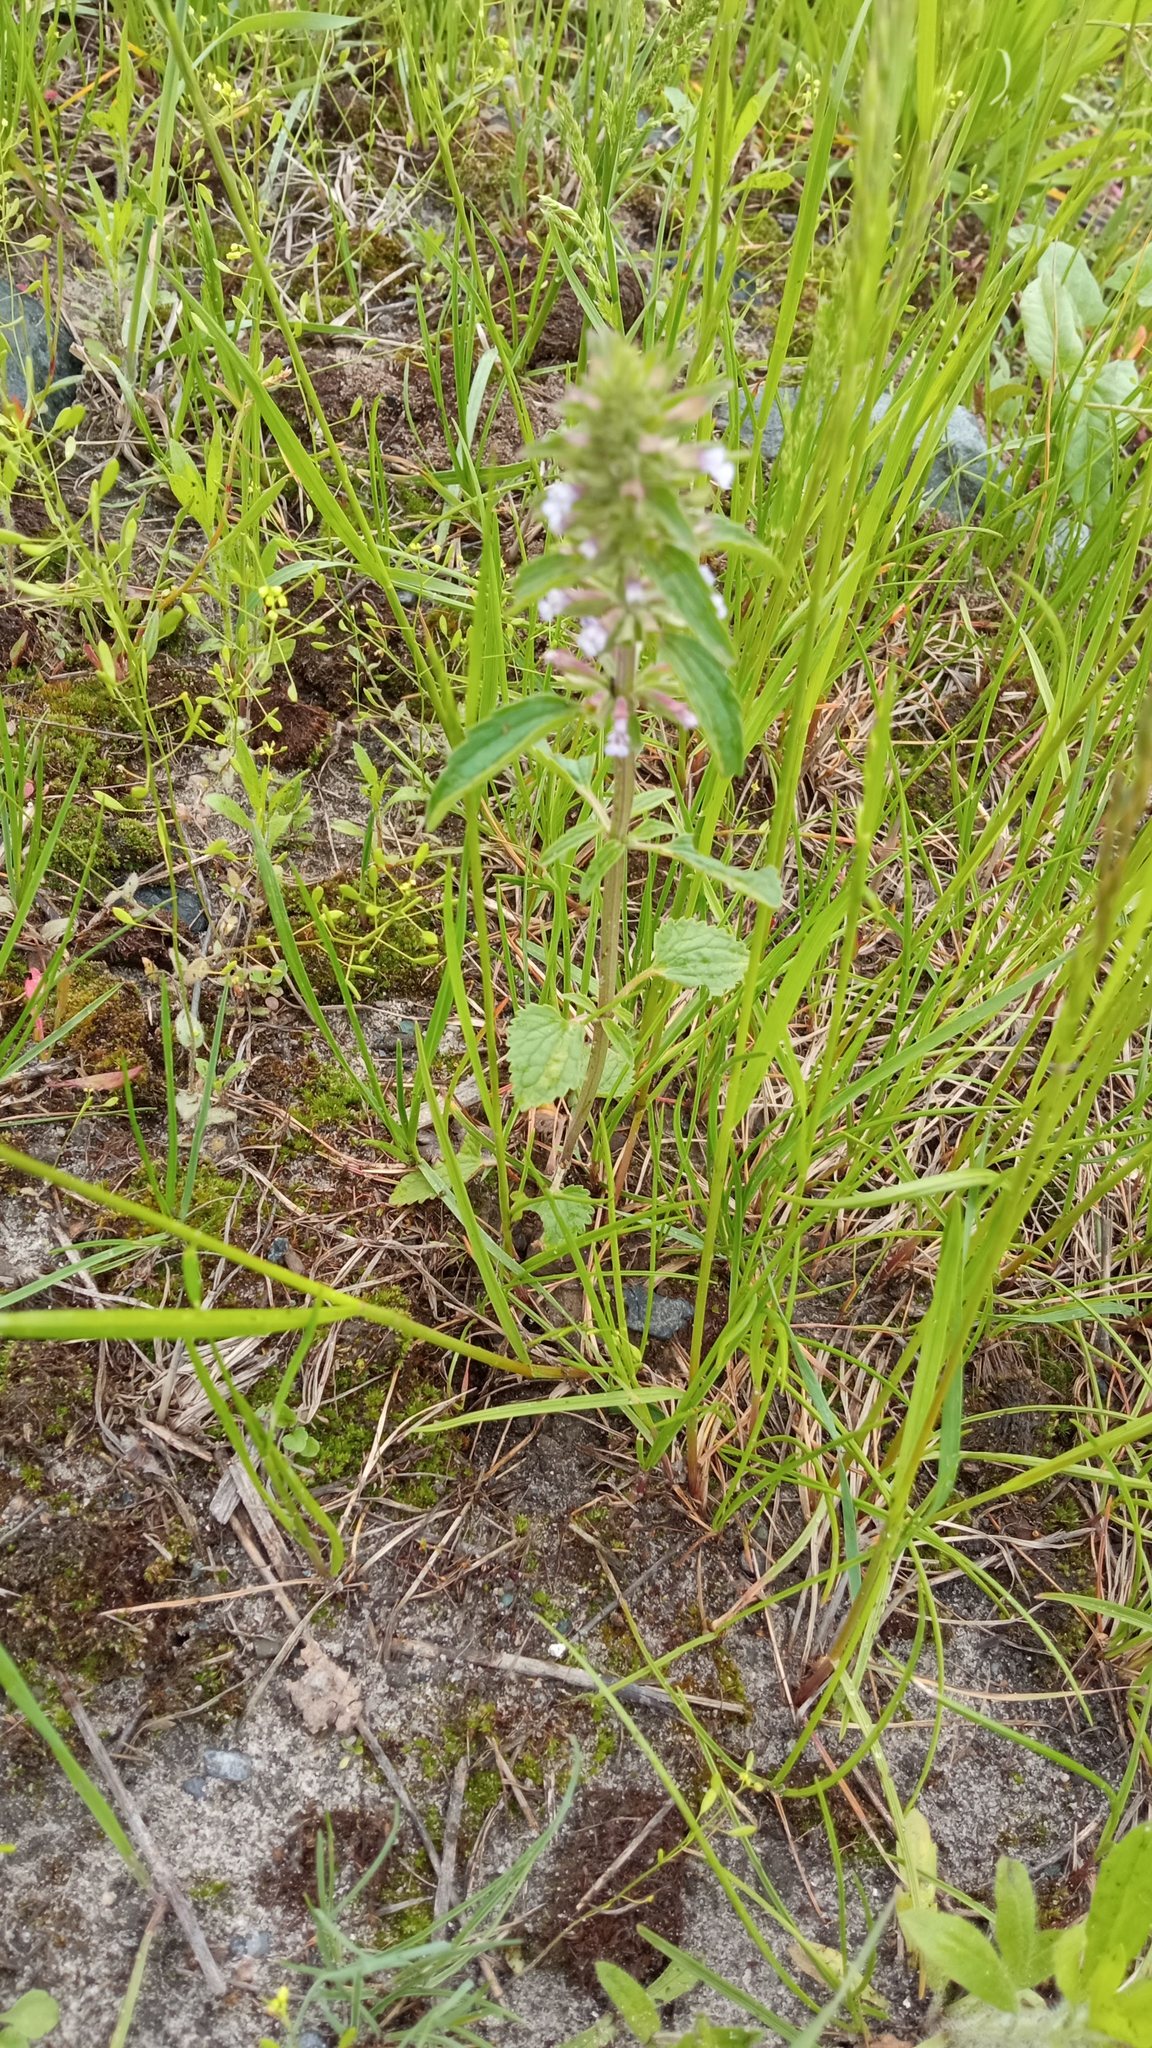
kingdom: Plantae
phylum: Tracheophyta
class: Magnoliopsida
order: Lamiales
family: Lamiaceae
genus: Dracocephalum
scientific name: Dracocephalum thymiflorum
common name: Thymeleaf dragonhead
